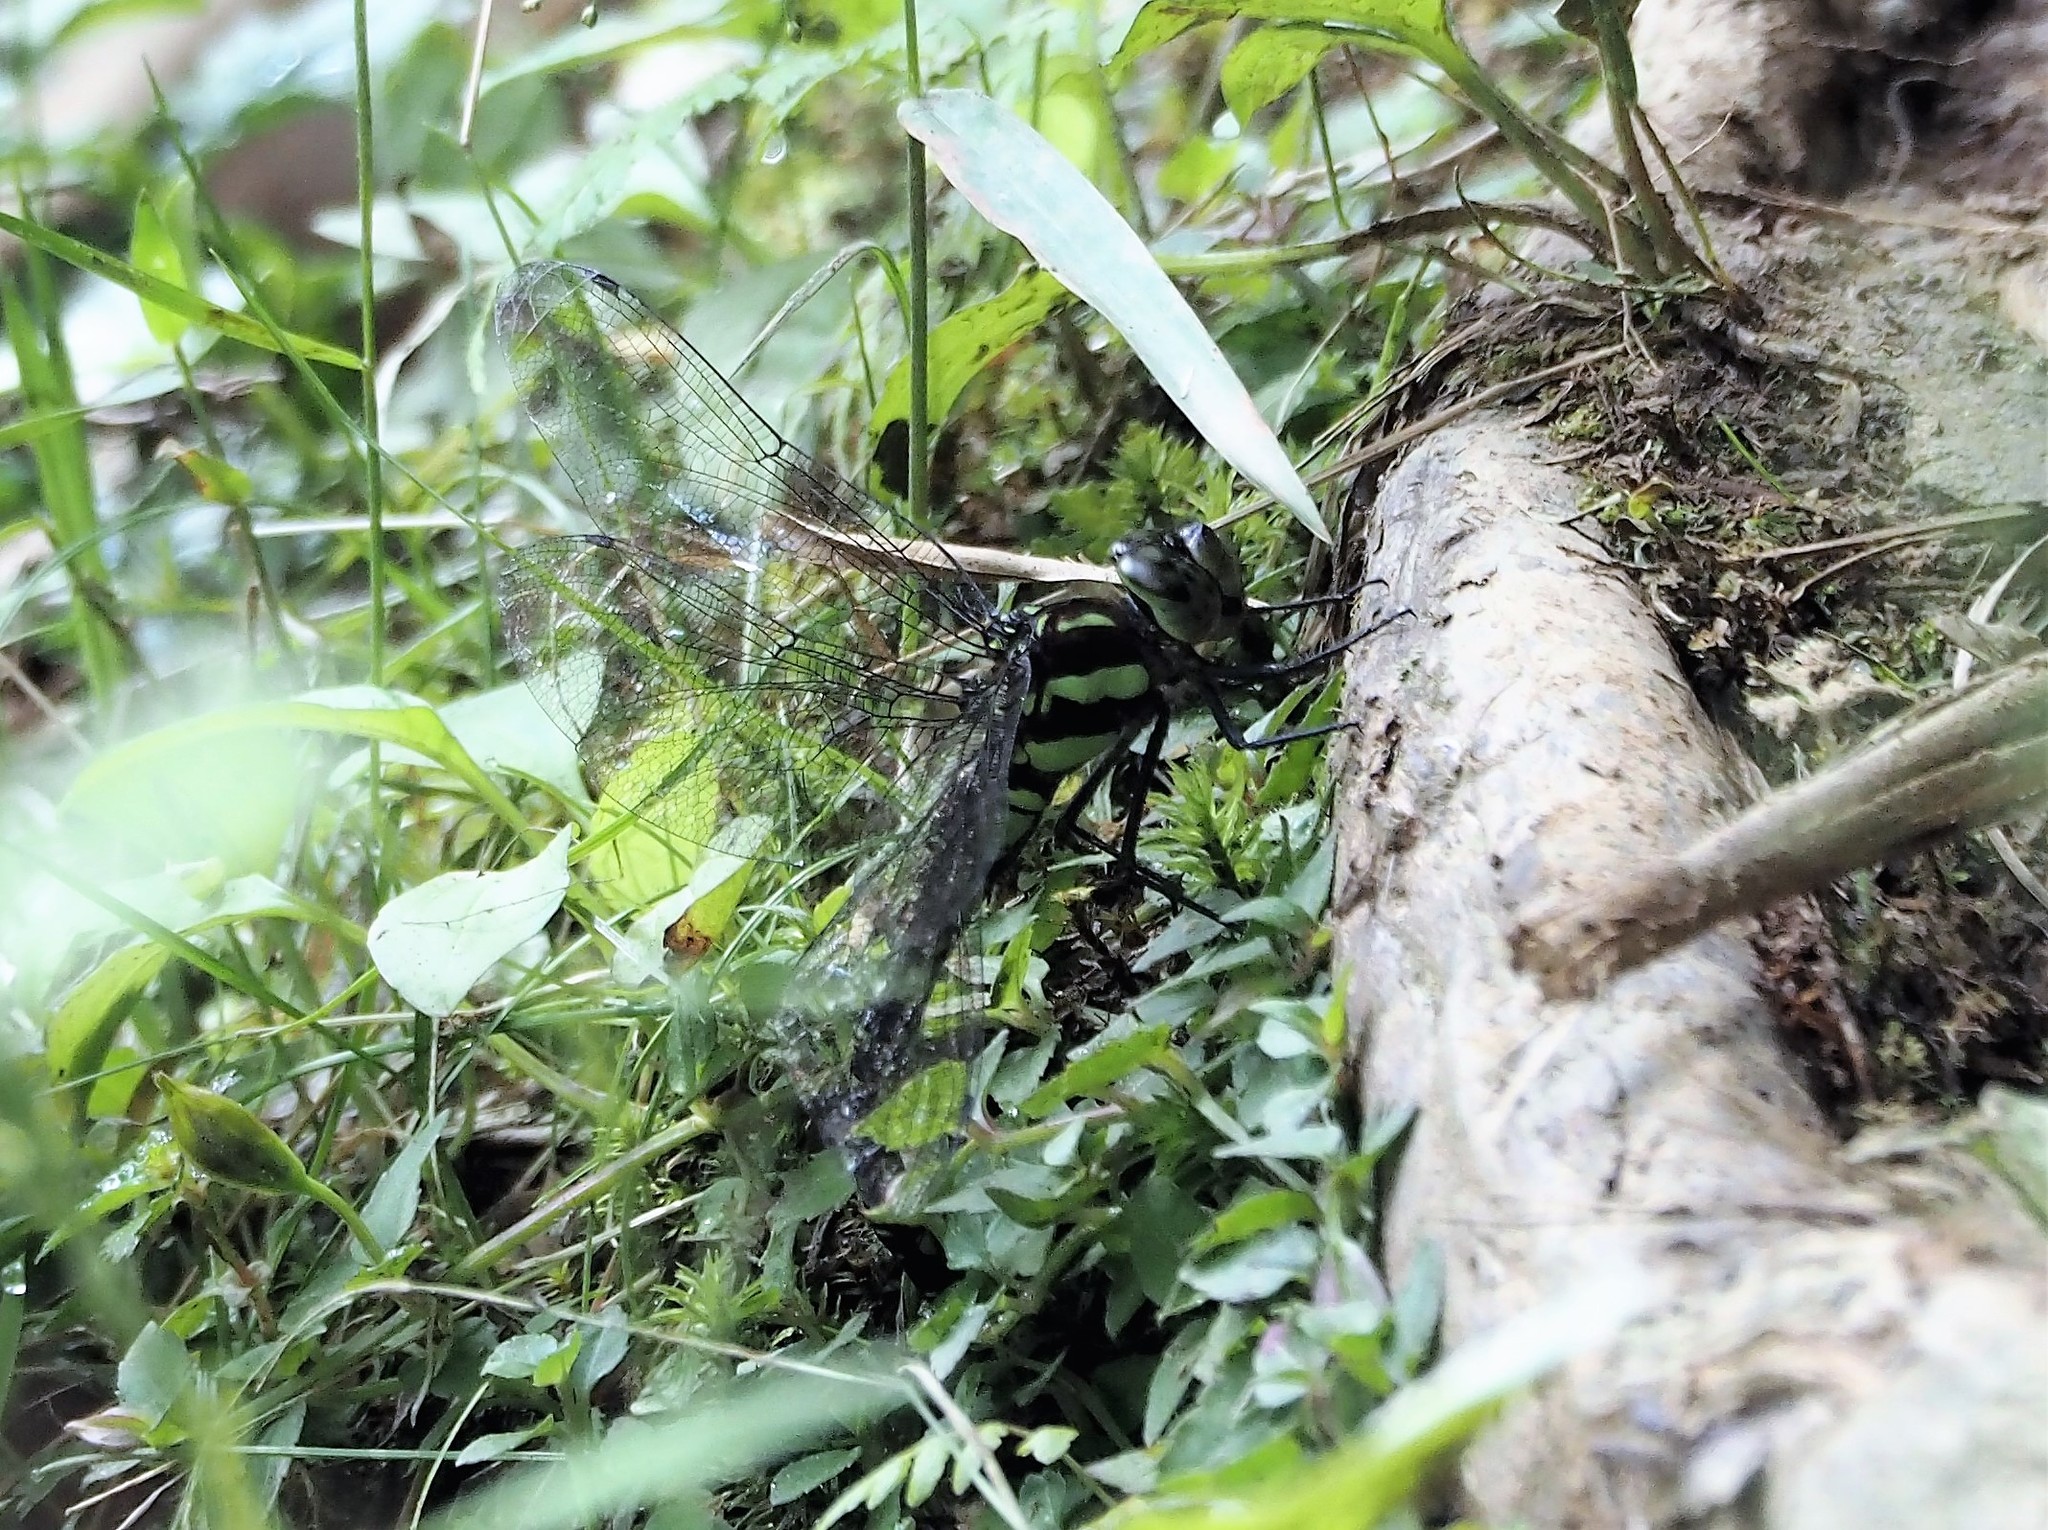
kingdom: Animalia
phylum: Arthropoda
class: Insecta
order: Odonata
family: Aeshnidae
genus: Aeshna
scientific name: Aeshna petalura
